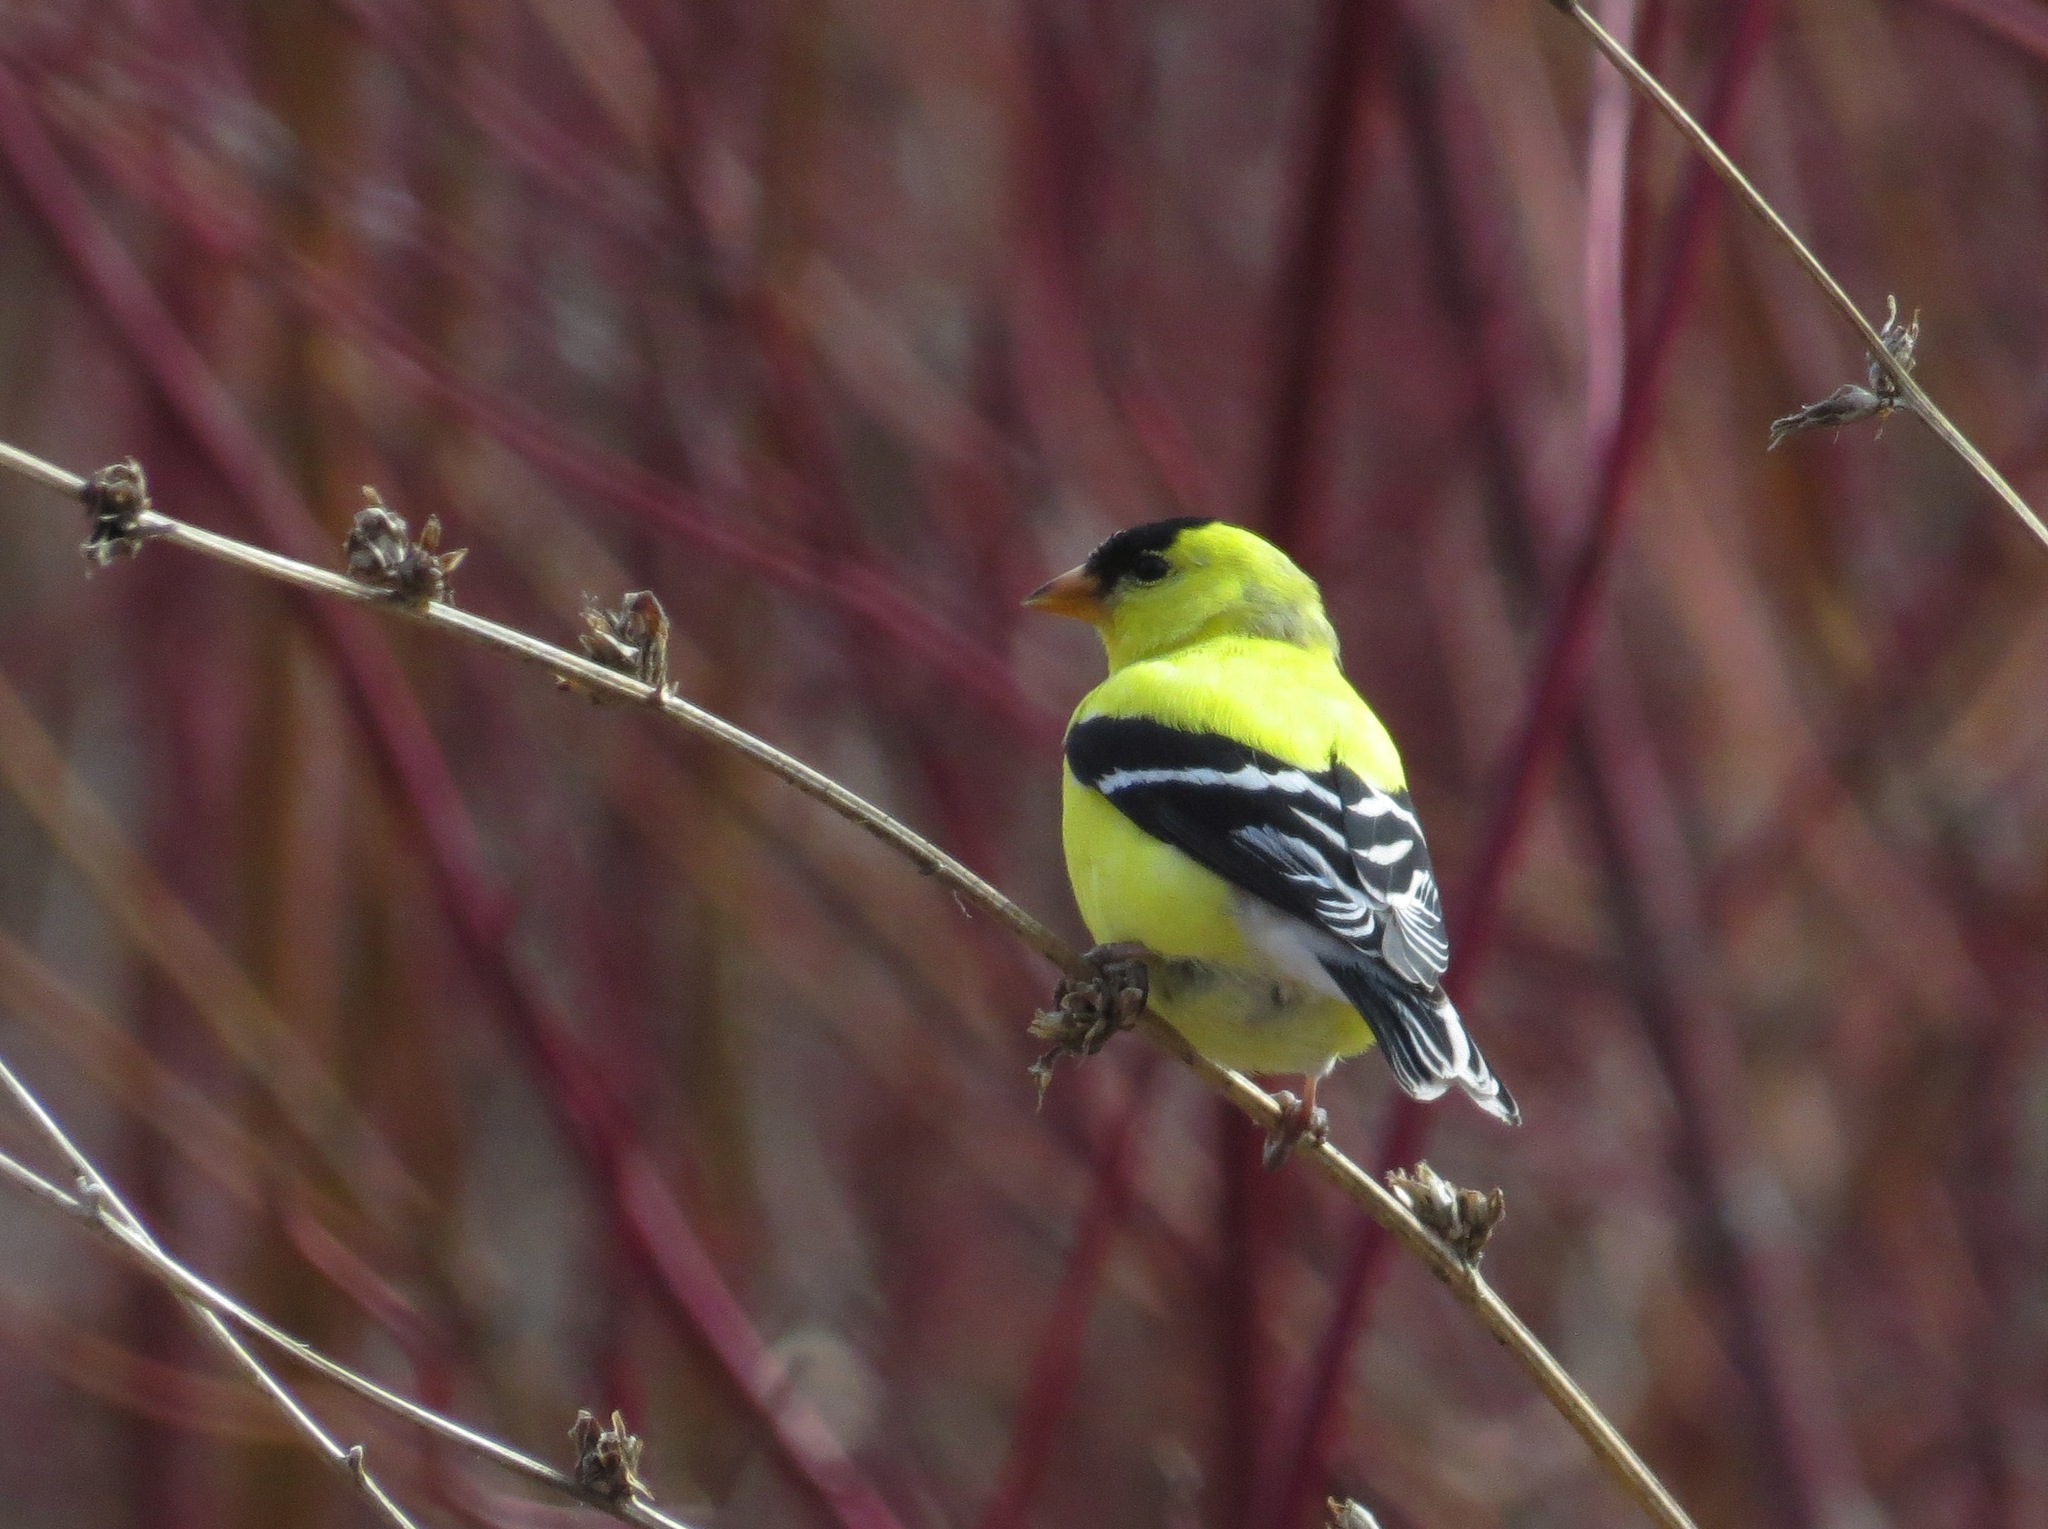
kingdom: Animalia
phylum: Chordata
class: Aves
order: Passeriformes
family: Fringillidae
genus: Spinus
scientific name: Spinus tristis
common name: American goldfinch
